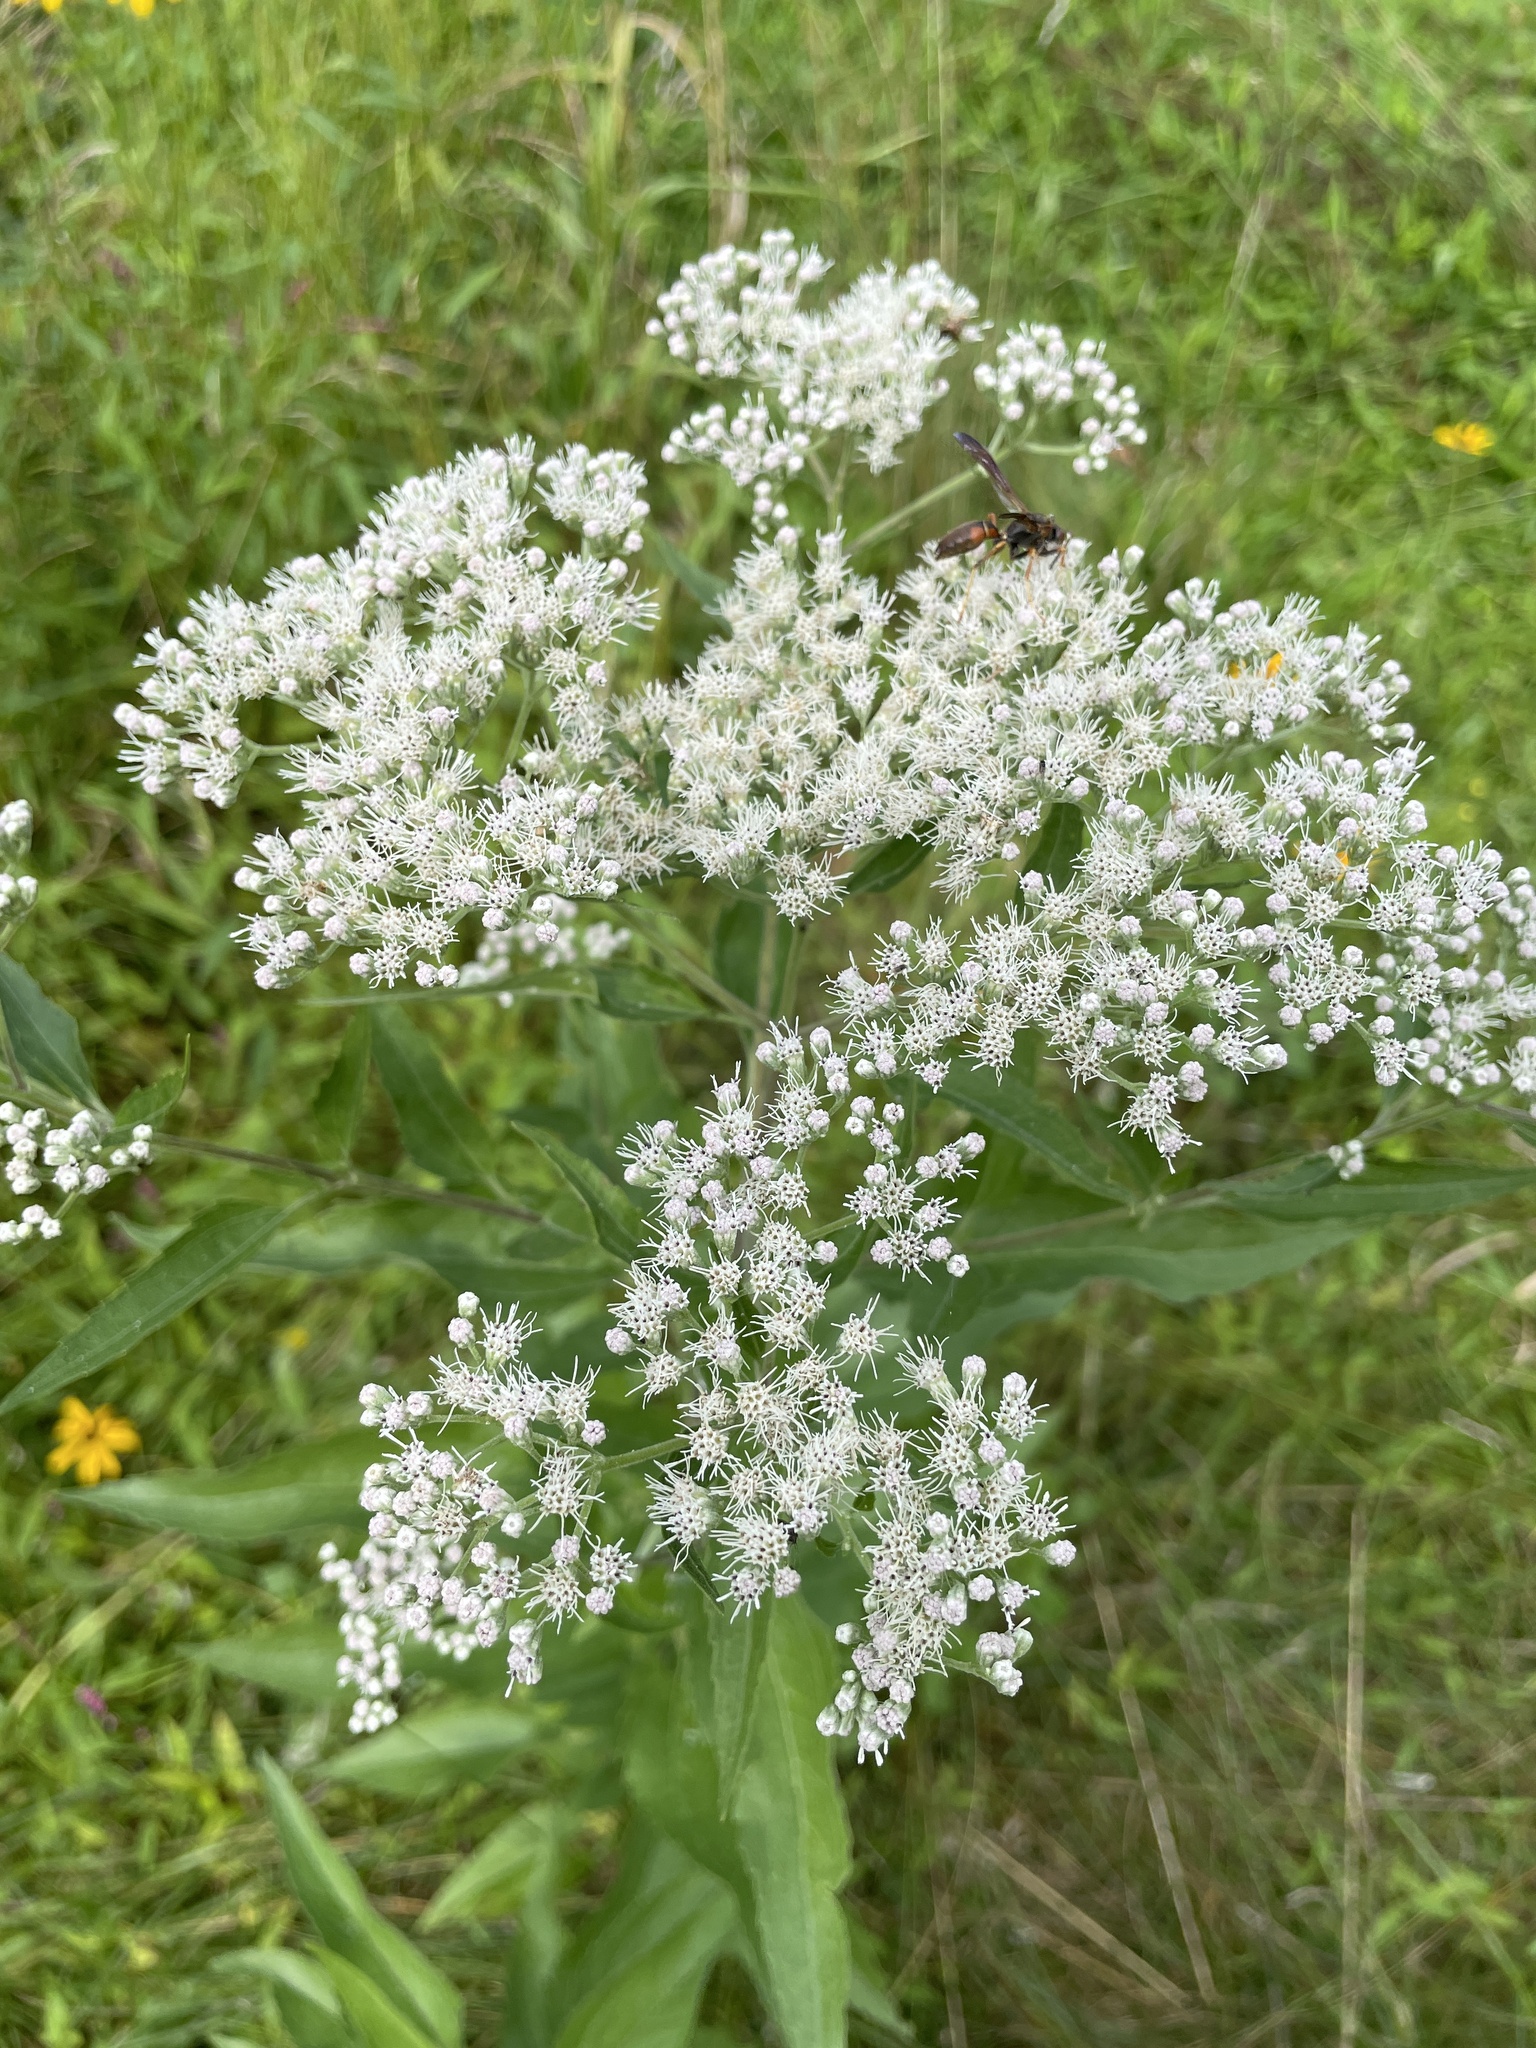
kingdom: Plantae
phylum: Tracheophyta
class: Magnoliopsida
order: Asterales
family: Asteraceae
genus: Eupatorium
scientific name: Eupatorium serotinum
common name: Late boneset
